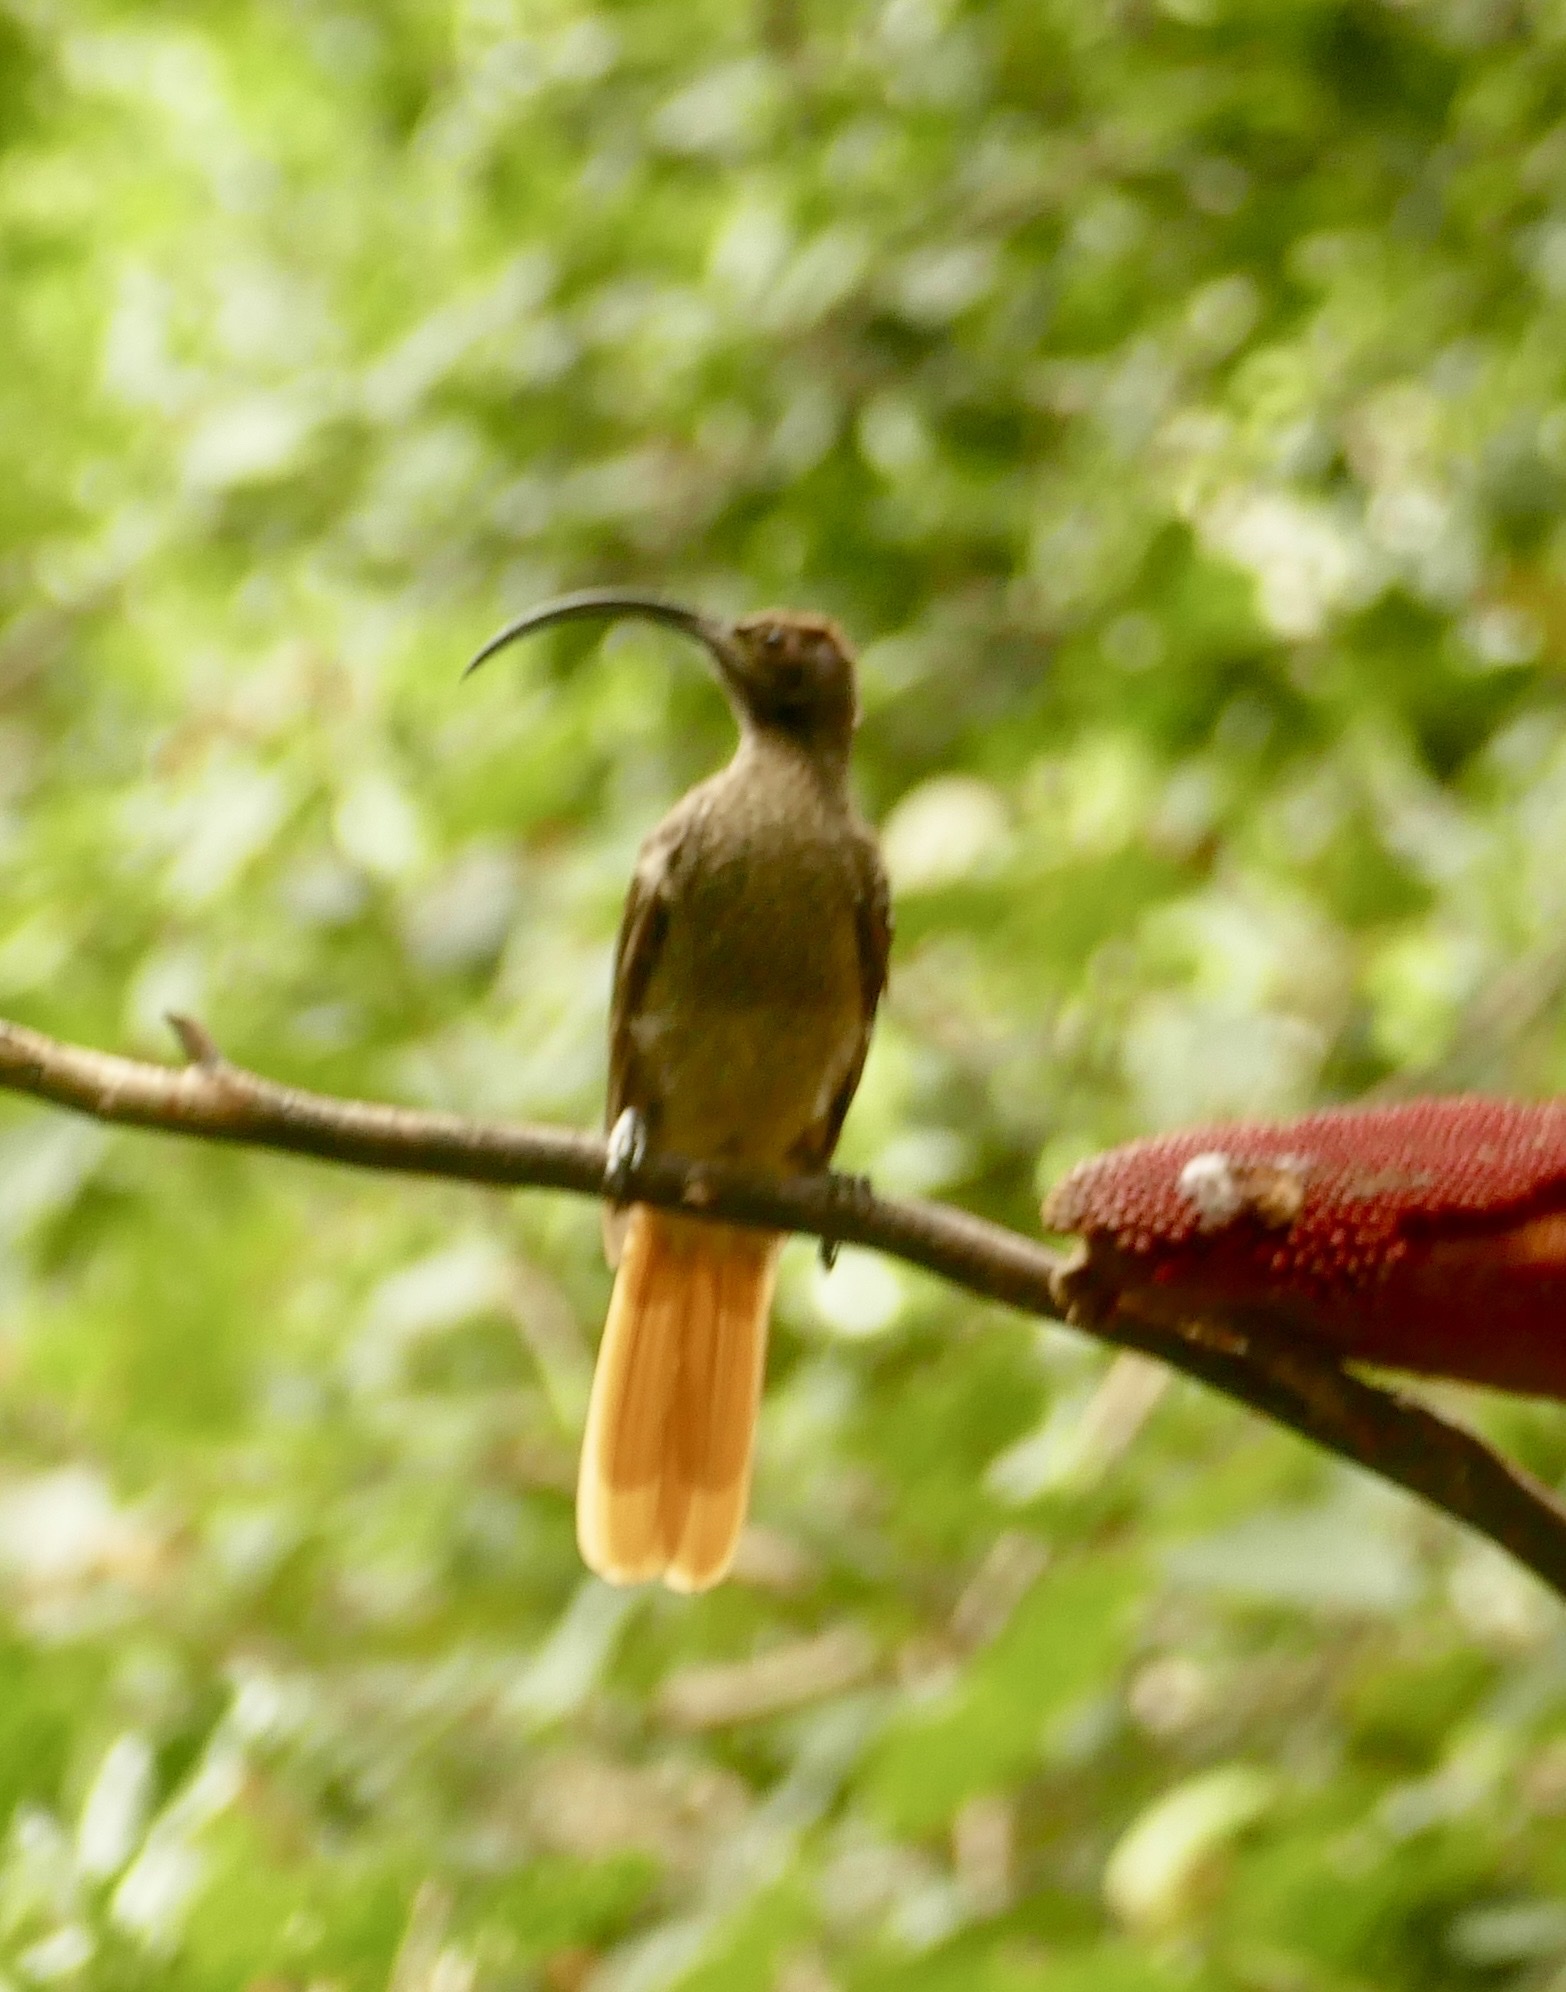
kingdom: Animalia
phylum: Chordata
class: Aves
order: Passeriformes
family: Paradisaeidae
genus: Drepanornis
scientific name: Drepanornis albertisi
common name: Black-billed sicklebill
